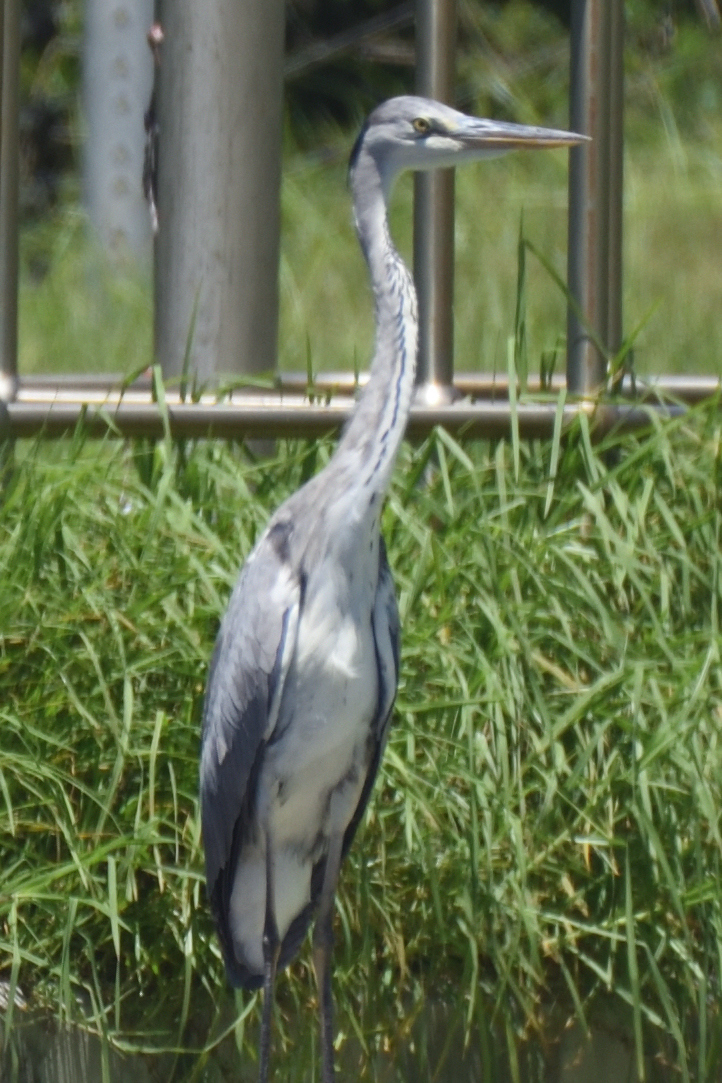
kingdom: Animalia
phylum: Chordata
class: Aves
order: Pelecaniformes
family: Ardeidae
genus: Ardea
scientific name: Ardea cinerea
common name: Grey heron
